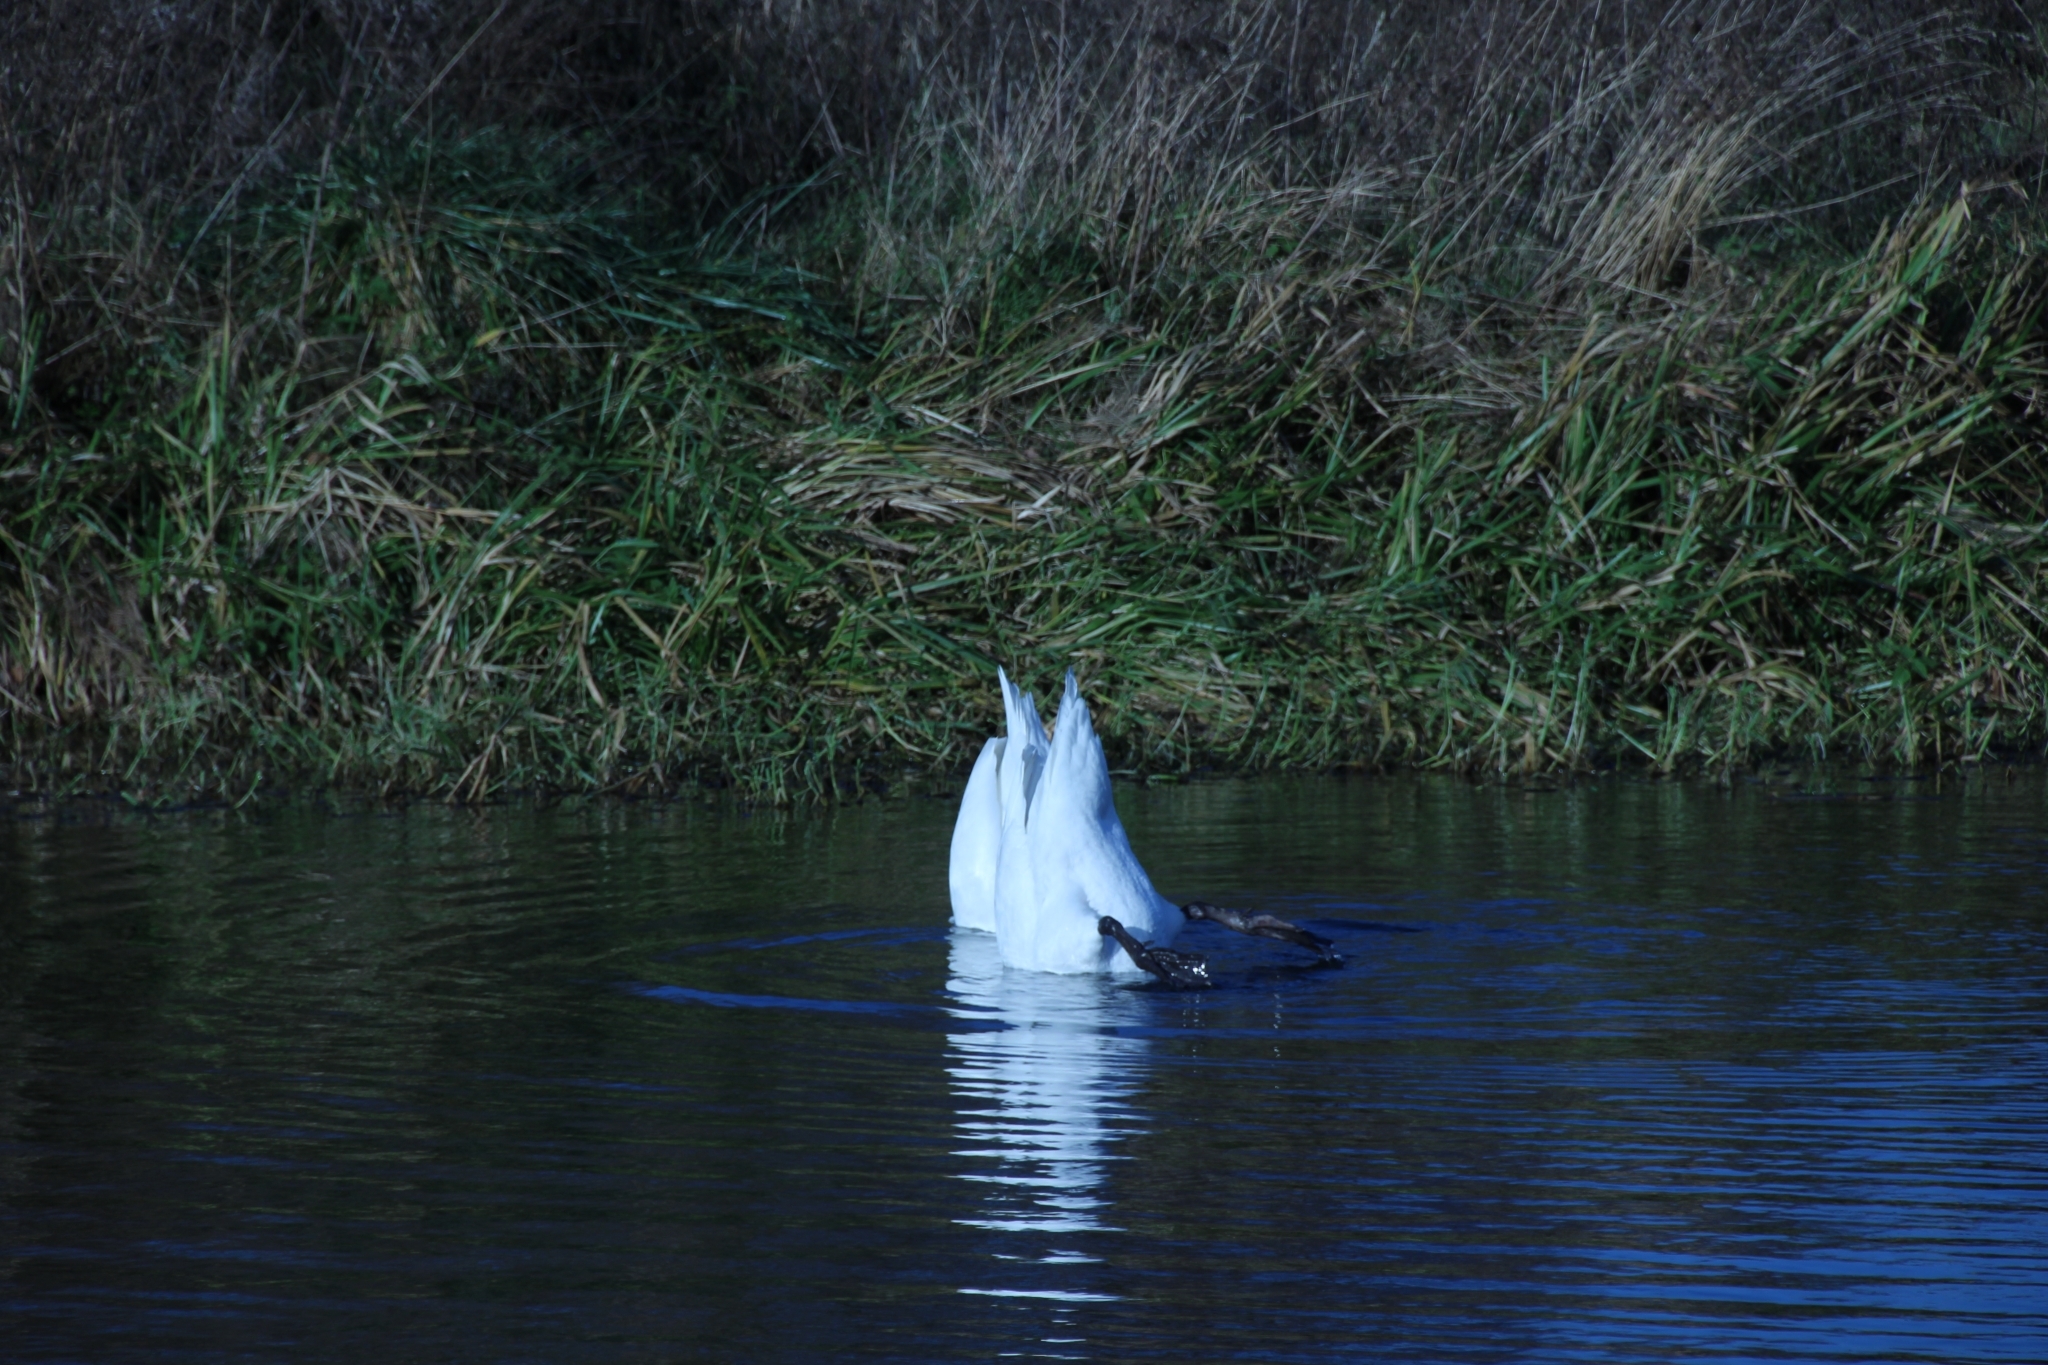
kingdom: Animalia
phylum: Chordata
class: Aves
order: Anseriformes
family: Anatidae
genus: Cygnus
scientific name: Cygnus olor
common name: Mute swan
